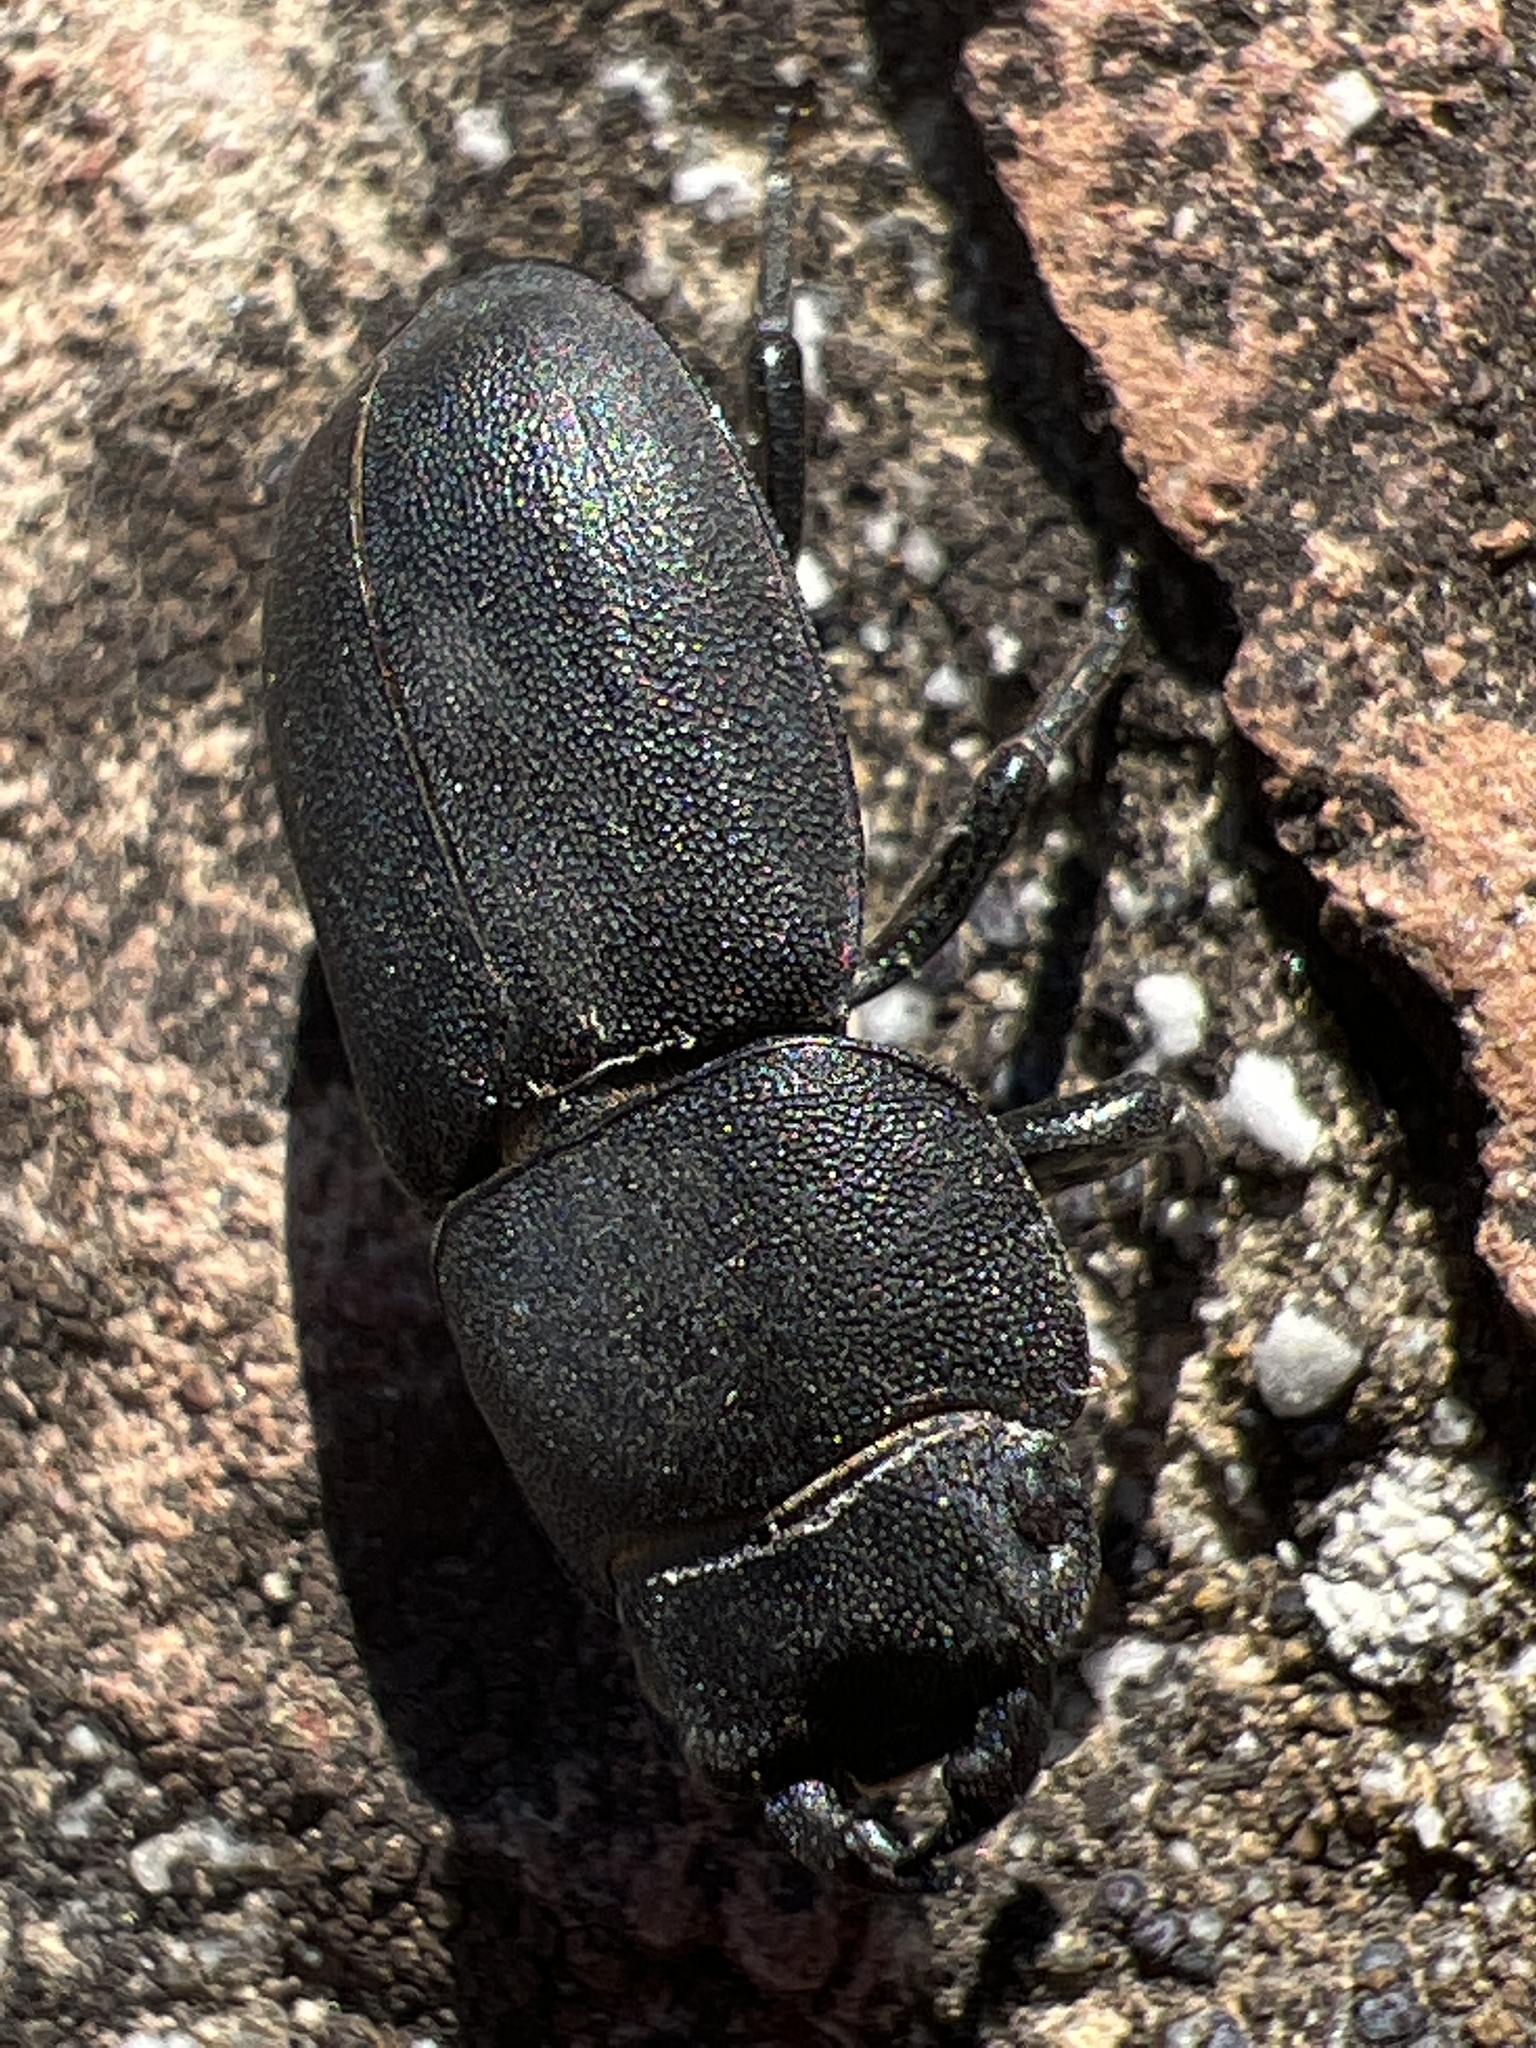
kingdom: Animalia
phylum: Arthropoda
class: Insecta
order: Coleoptera
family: Lucanidae
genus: Dorcus
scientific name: Dorcus parallelipipedus
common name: Lesser stag beetle
